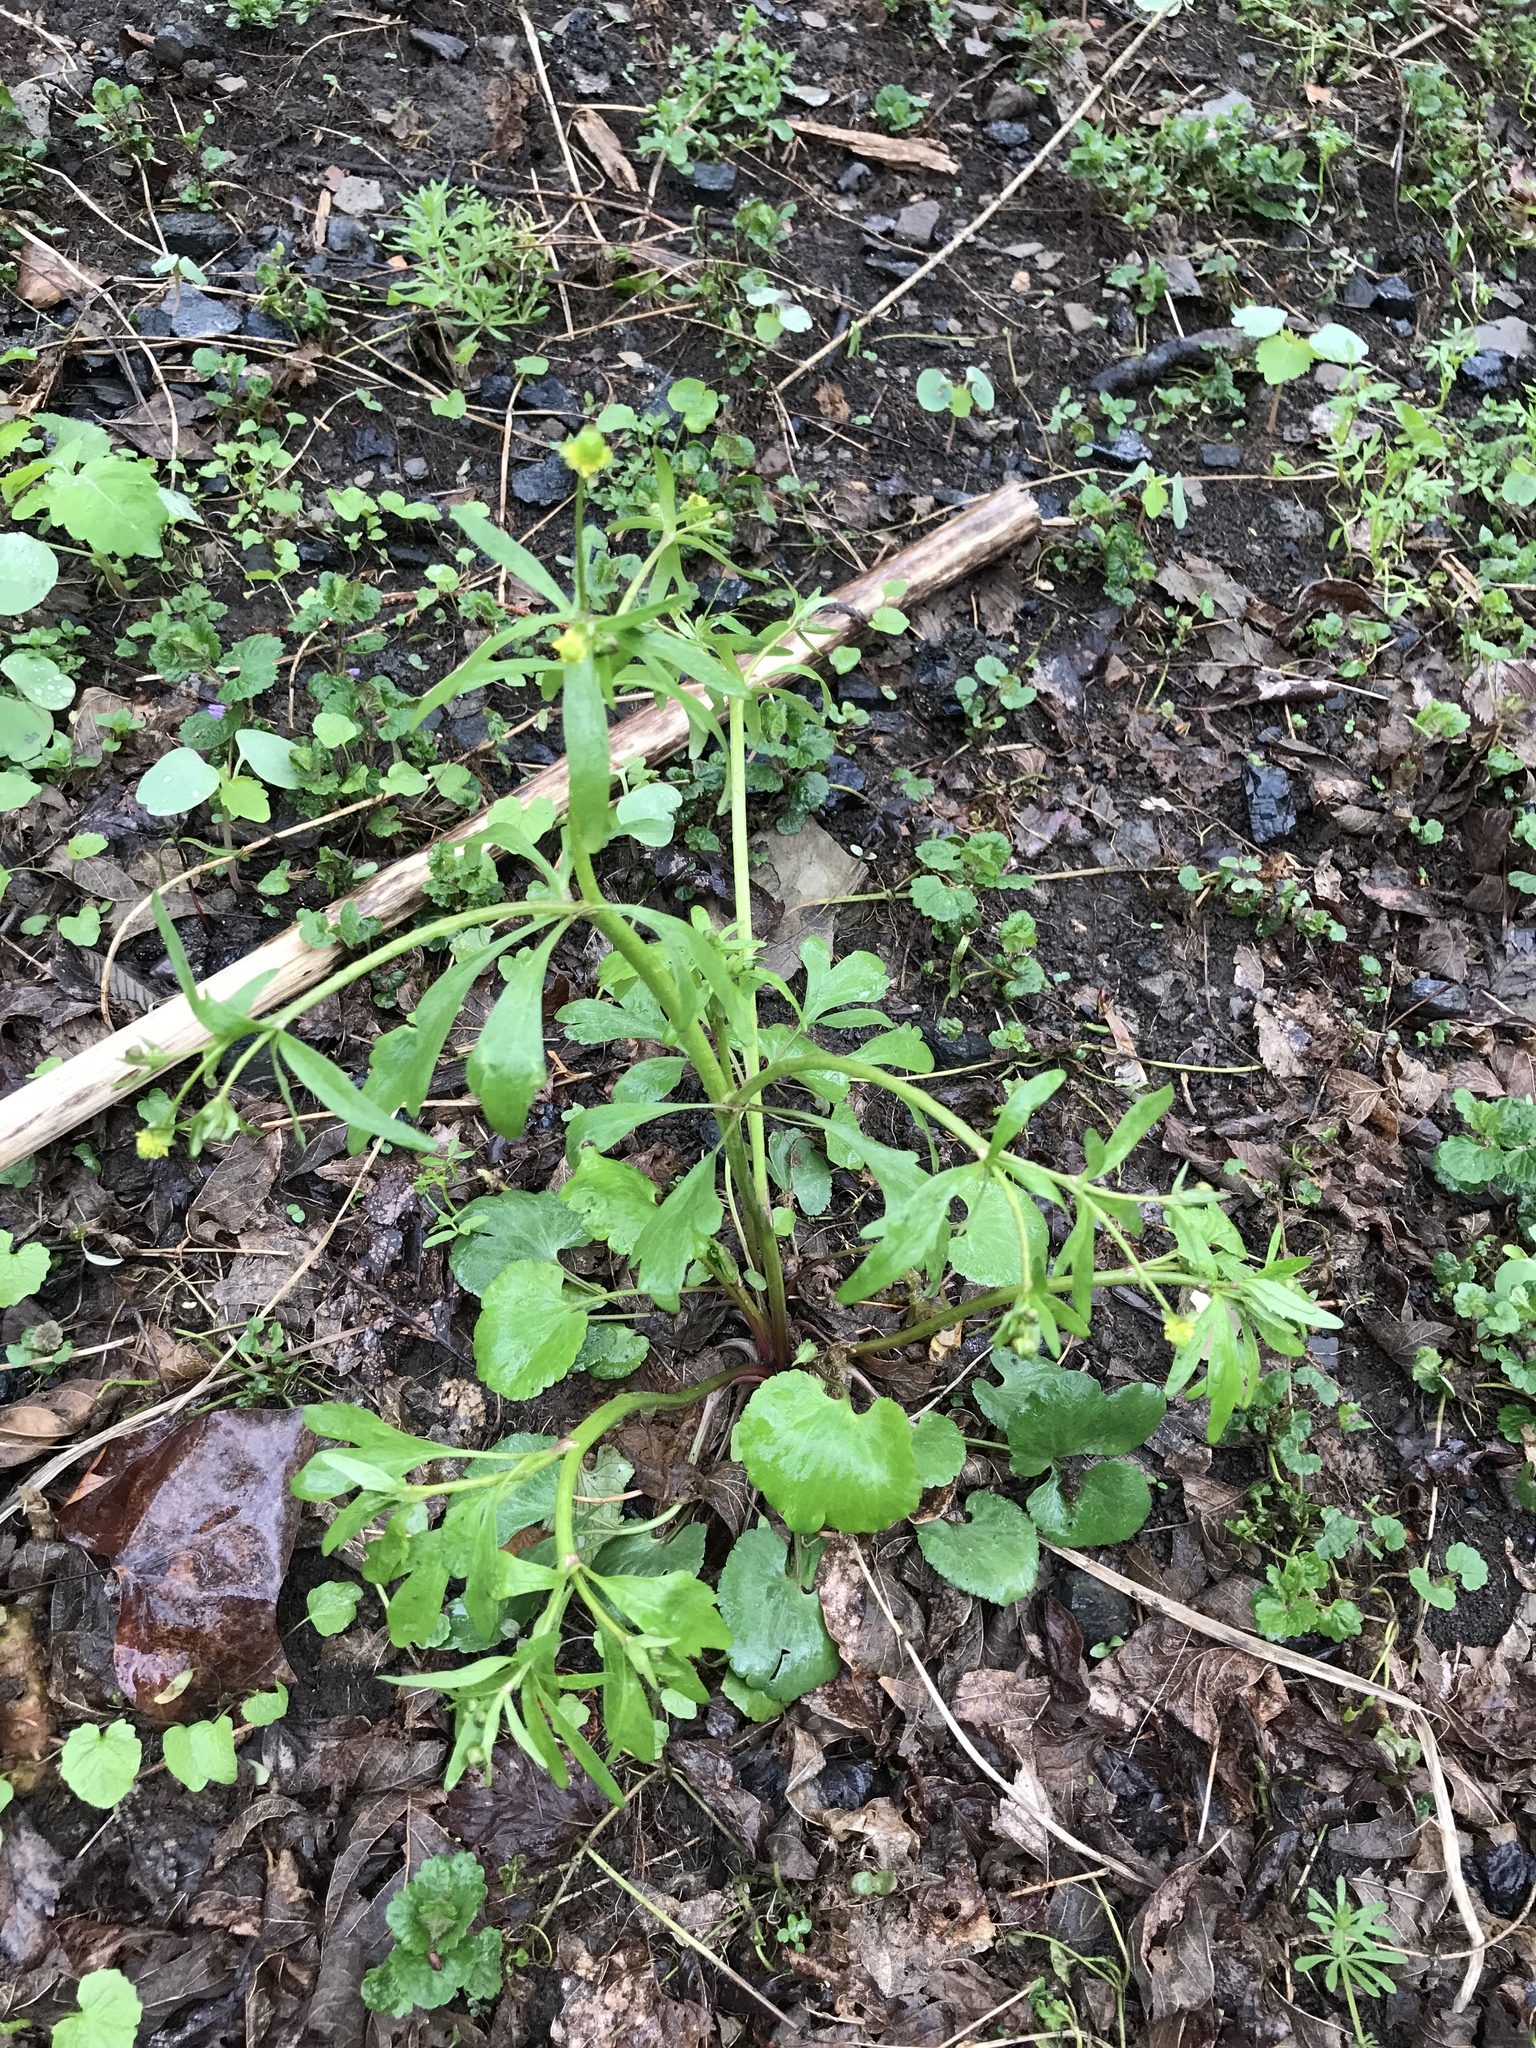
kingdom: Plantae
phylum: Tracheophyta
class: Magnoliopsida
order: Ranunculales
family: Ranunculaceae
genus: Ranunculus
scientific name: Ranunculus abortivus
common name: Early wood buttercup
